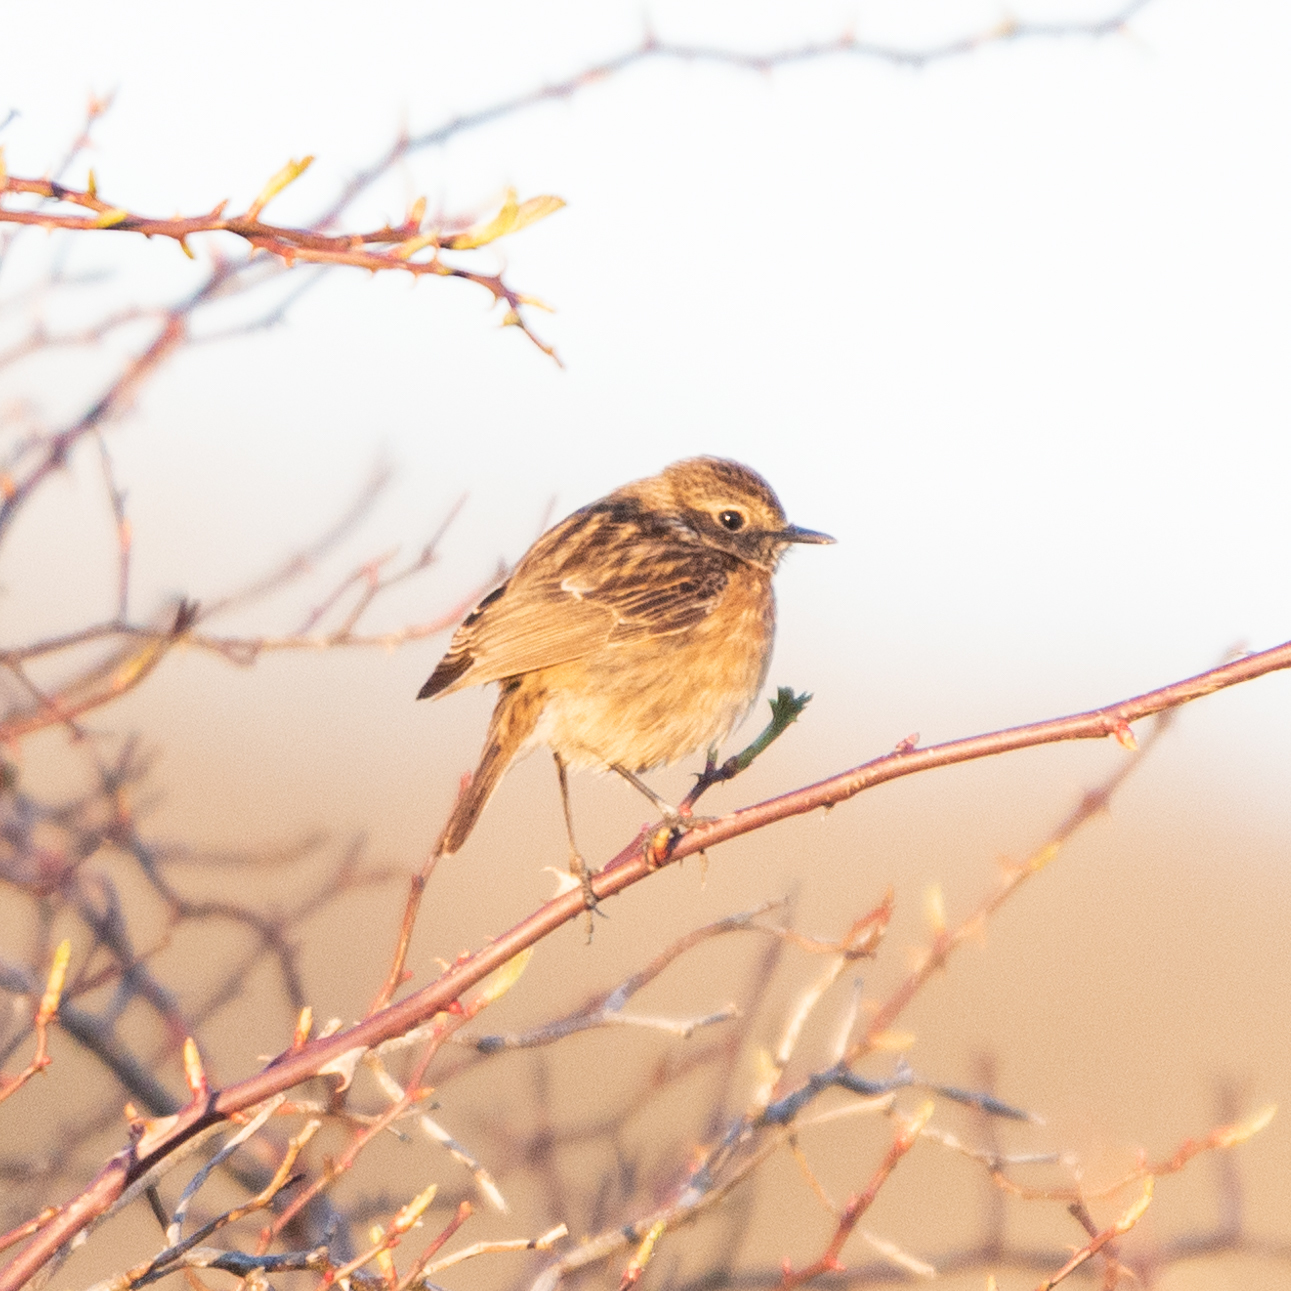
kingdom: Animalia
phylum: Chordata
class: Aves
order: Passeriformes
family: Muscicapidae
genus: Saxicola
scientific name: Saxicola rubicola
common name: European stonechat
